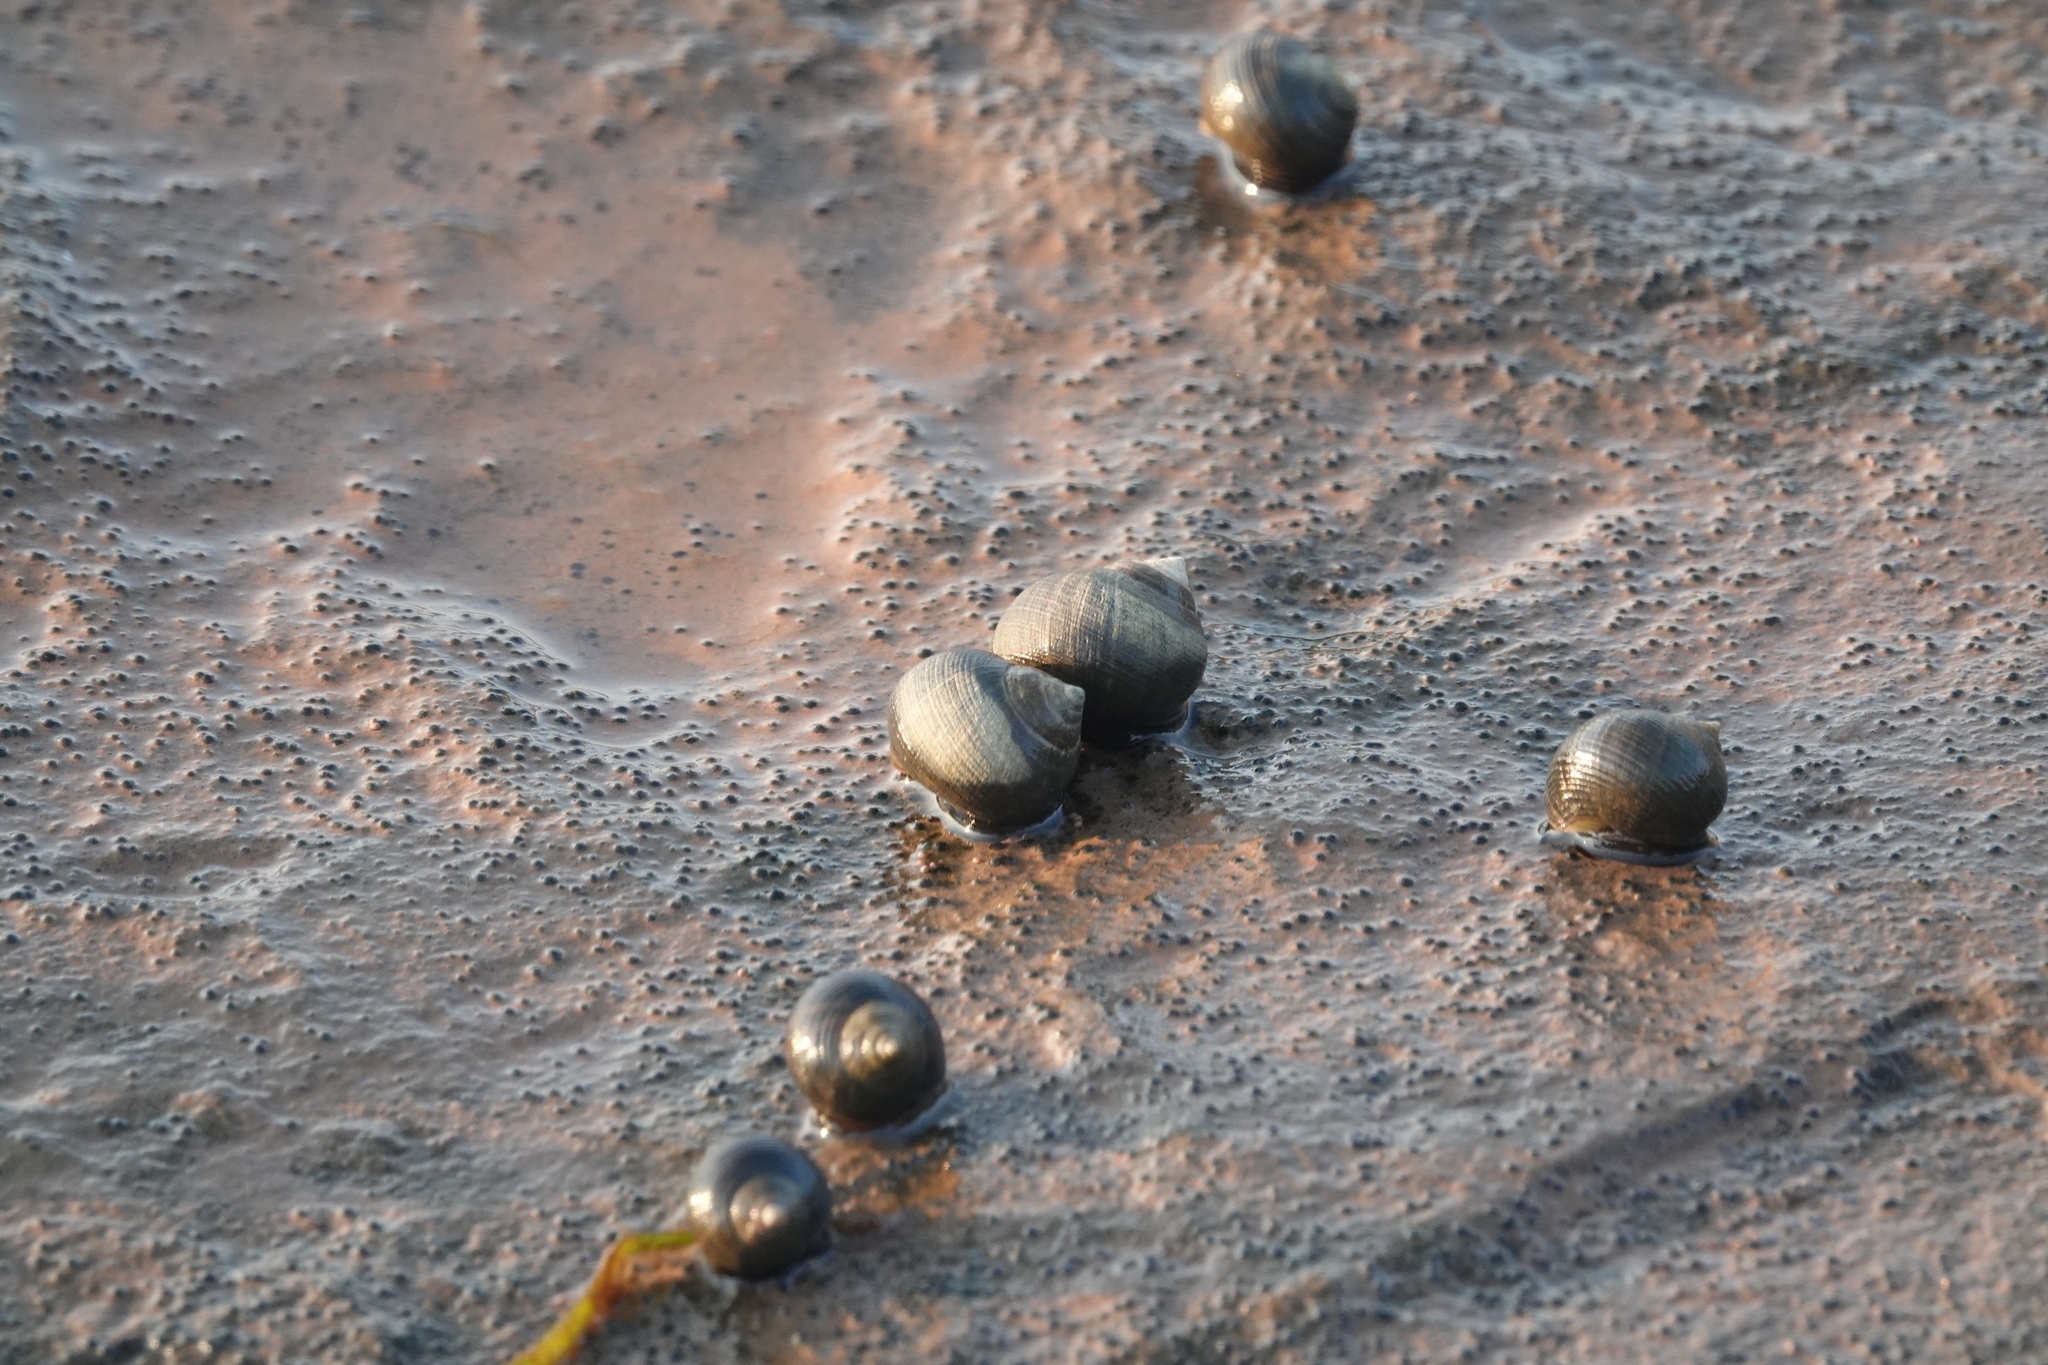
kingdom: Animalia
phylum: Mollusca
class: Gastropoda
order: Littorinimorpha
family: Littorinidae
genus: Littorina
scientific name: Littorina littorea
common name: Common periwinkle
